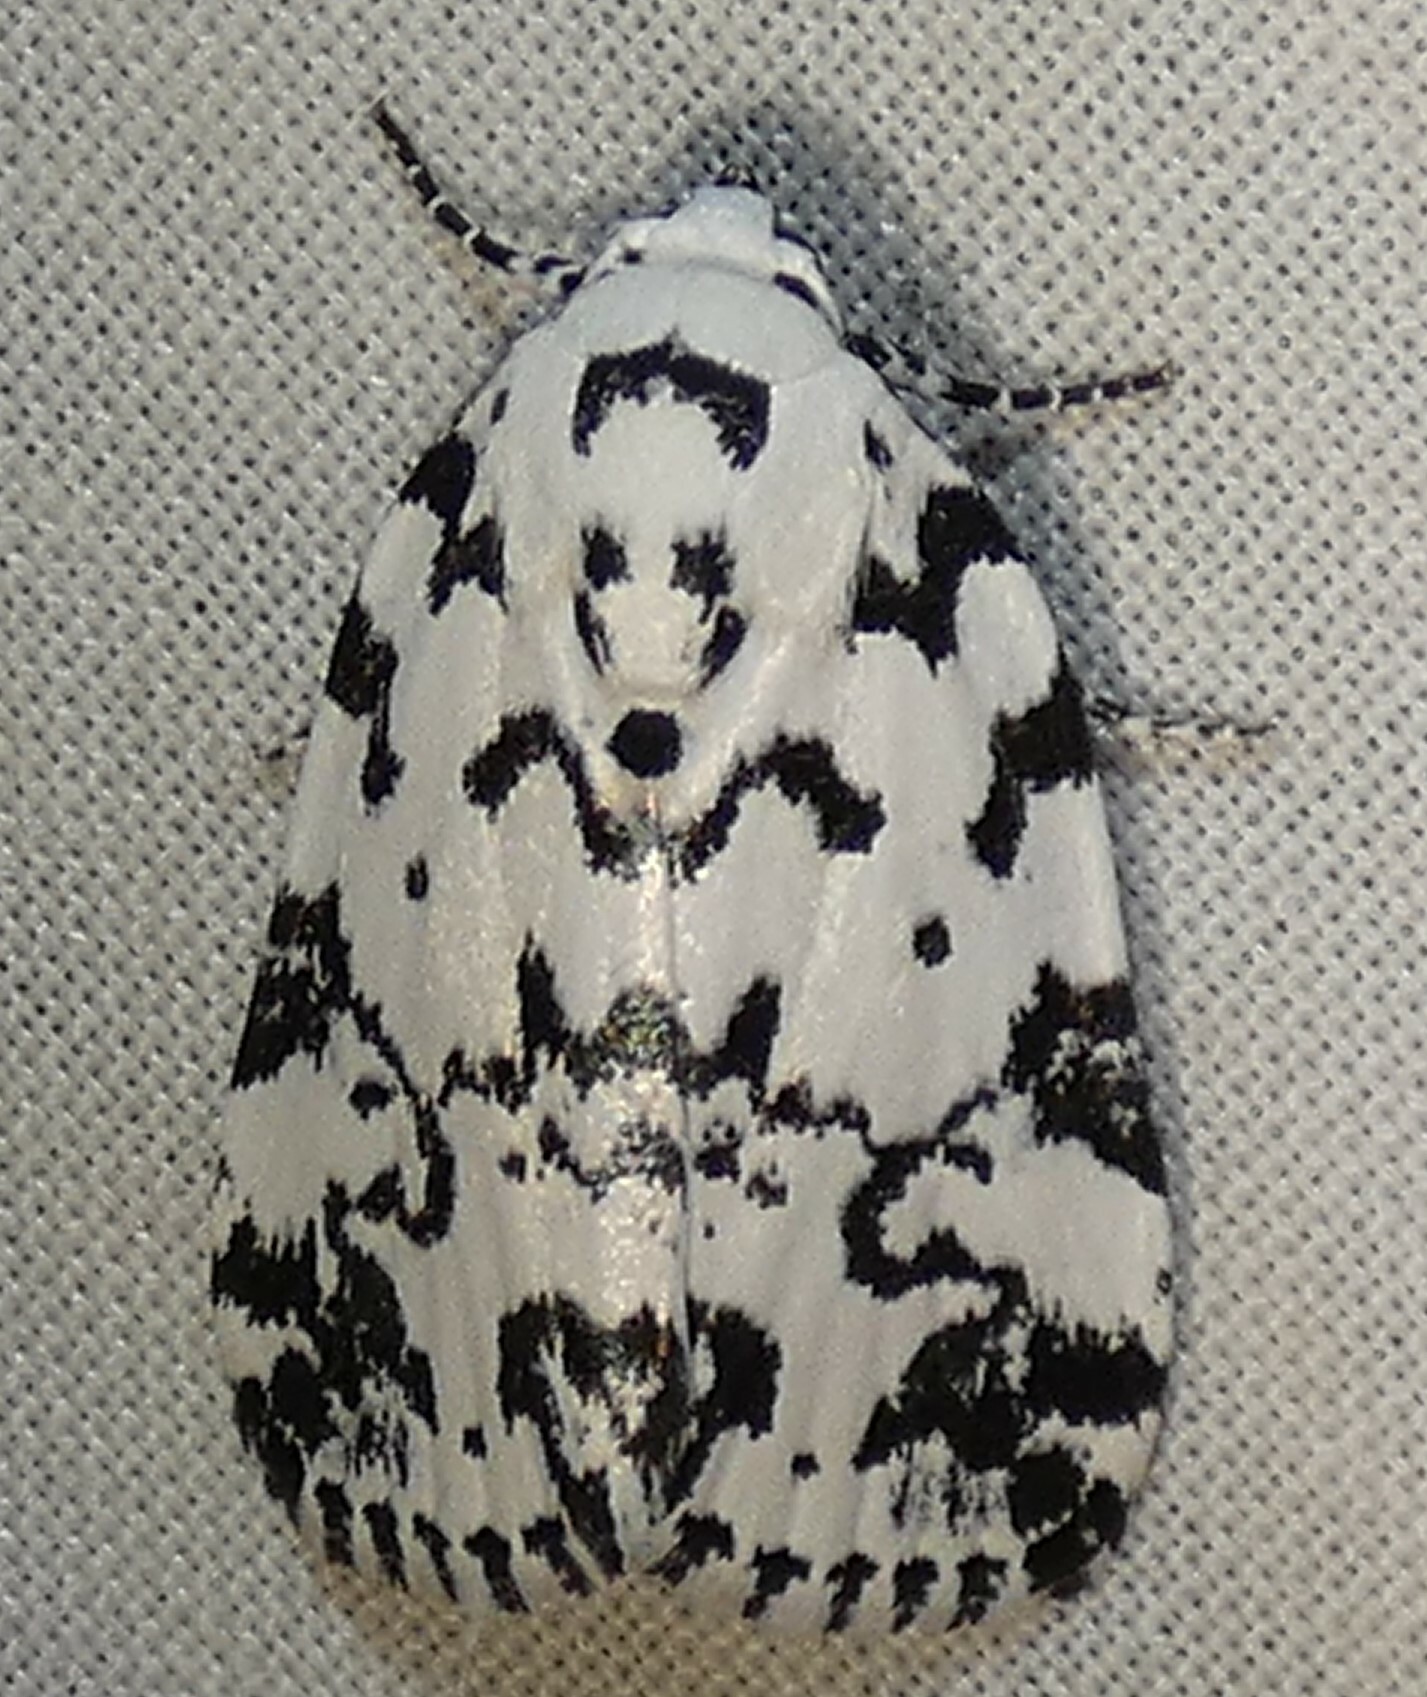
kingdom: Animalia
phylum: Arthropoda
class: Insecta
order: Lepidoptera
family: Noctuidae
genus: Polygrammate
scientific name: Polygrammate hebraeicum
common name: Hebrew moth
